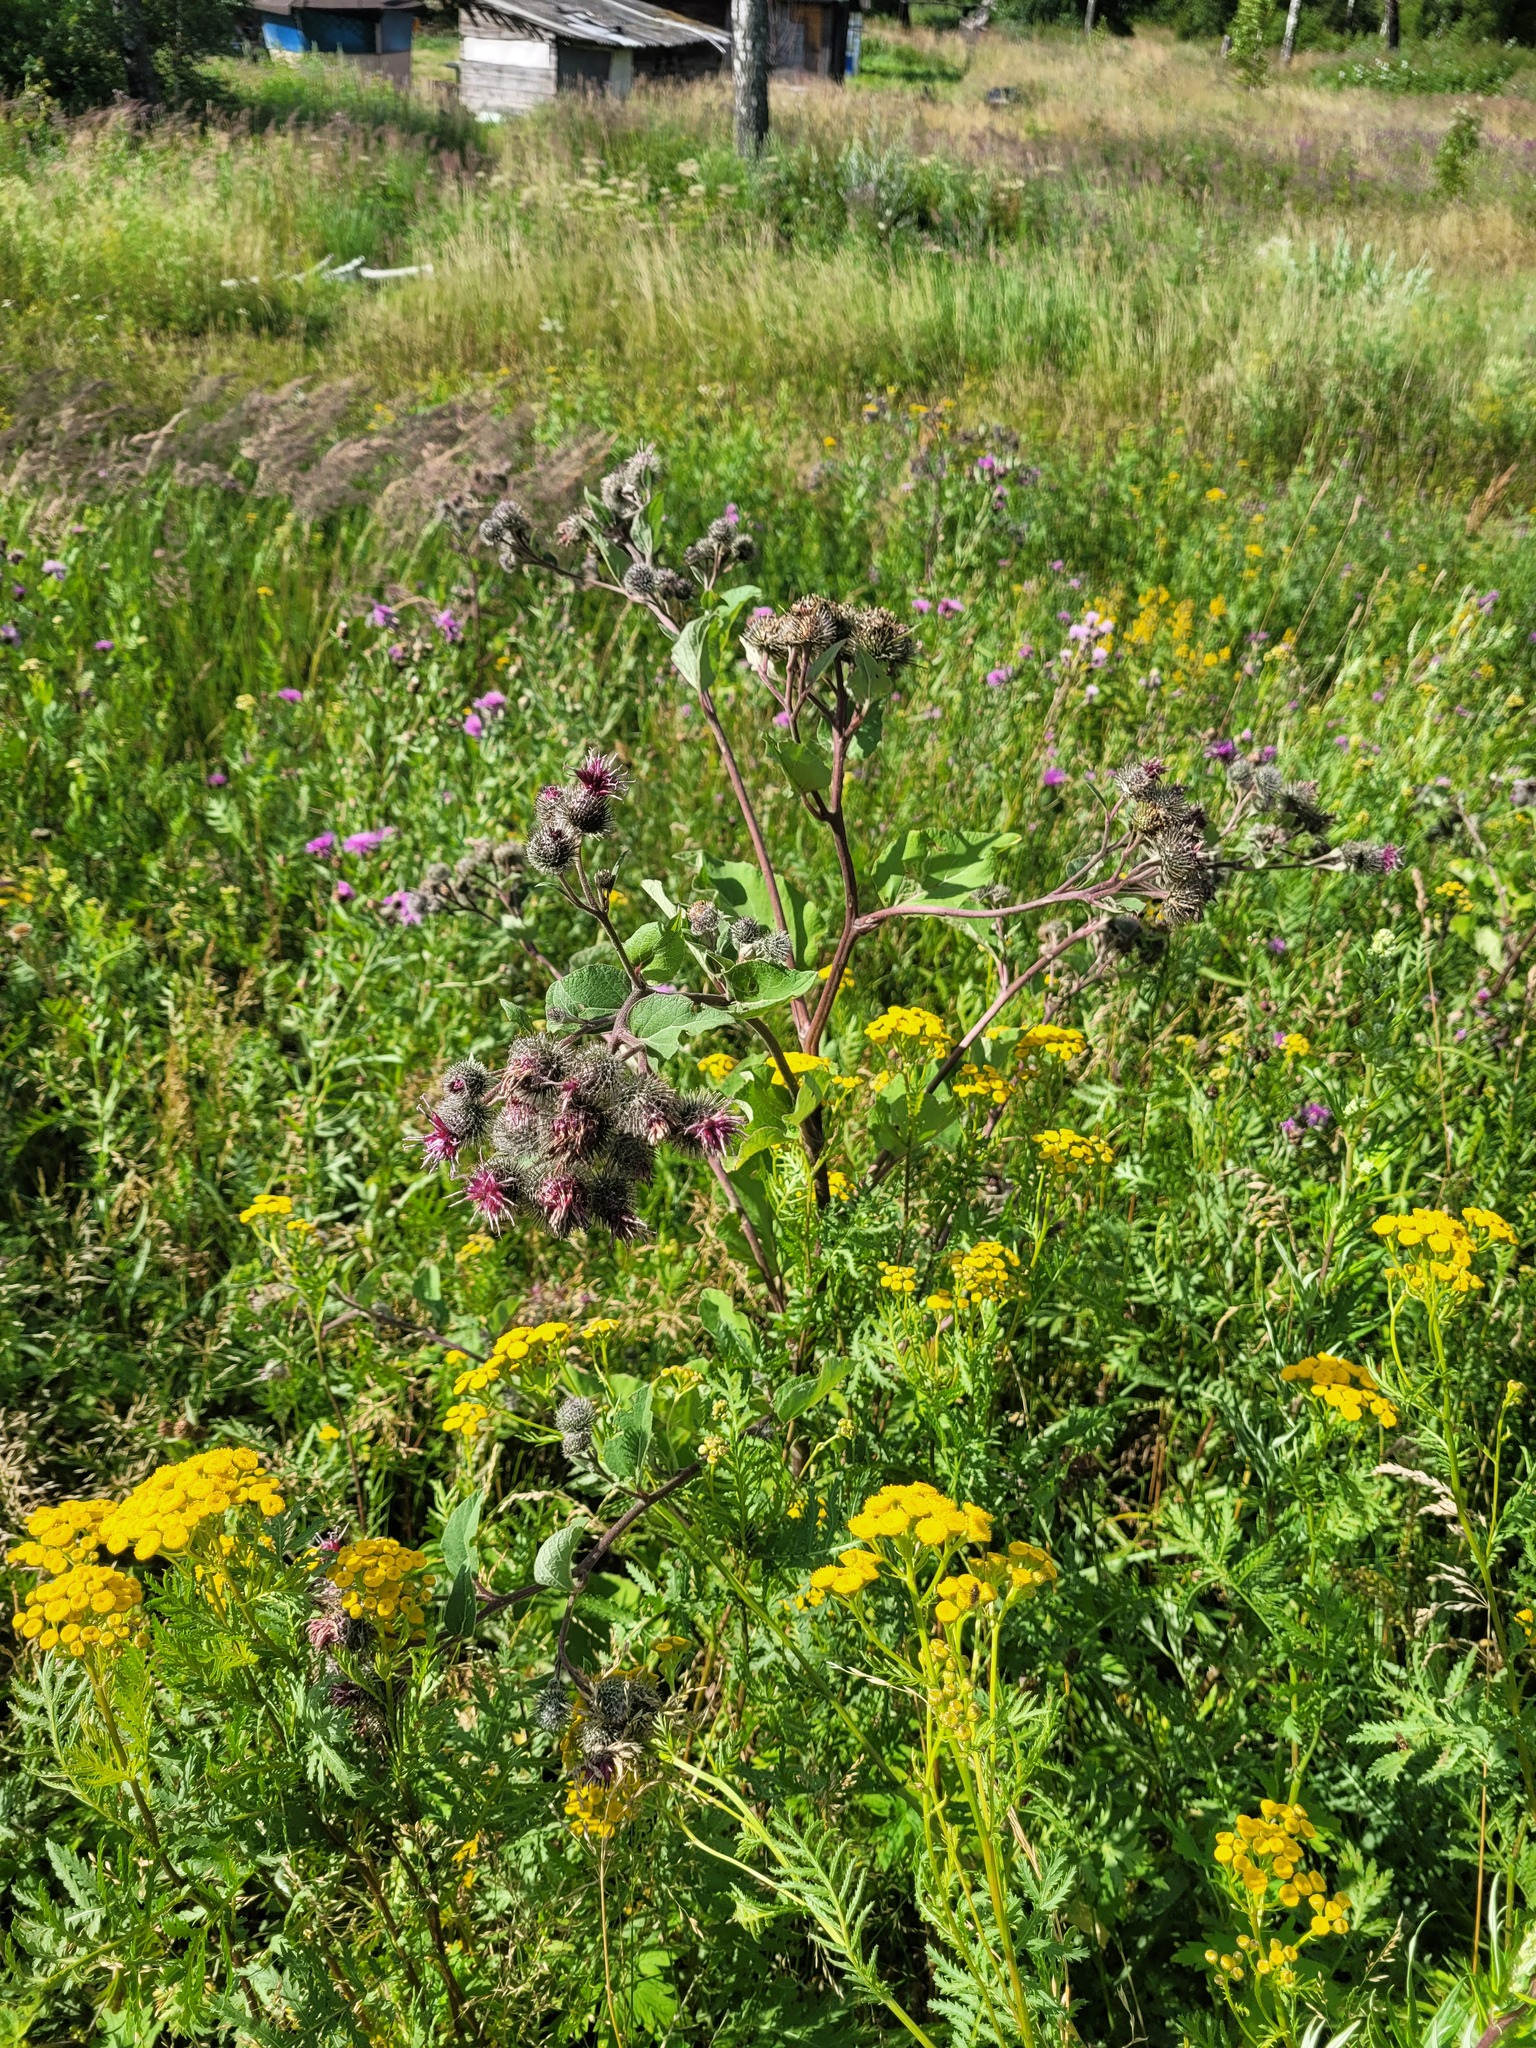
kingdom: Plantae
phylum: Tracheophyta
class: Magnoliopsida
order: Asterales
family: Asteraceae
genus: Arctium
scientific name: Arctium tomentosum
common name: Woolly burdock
